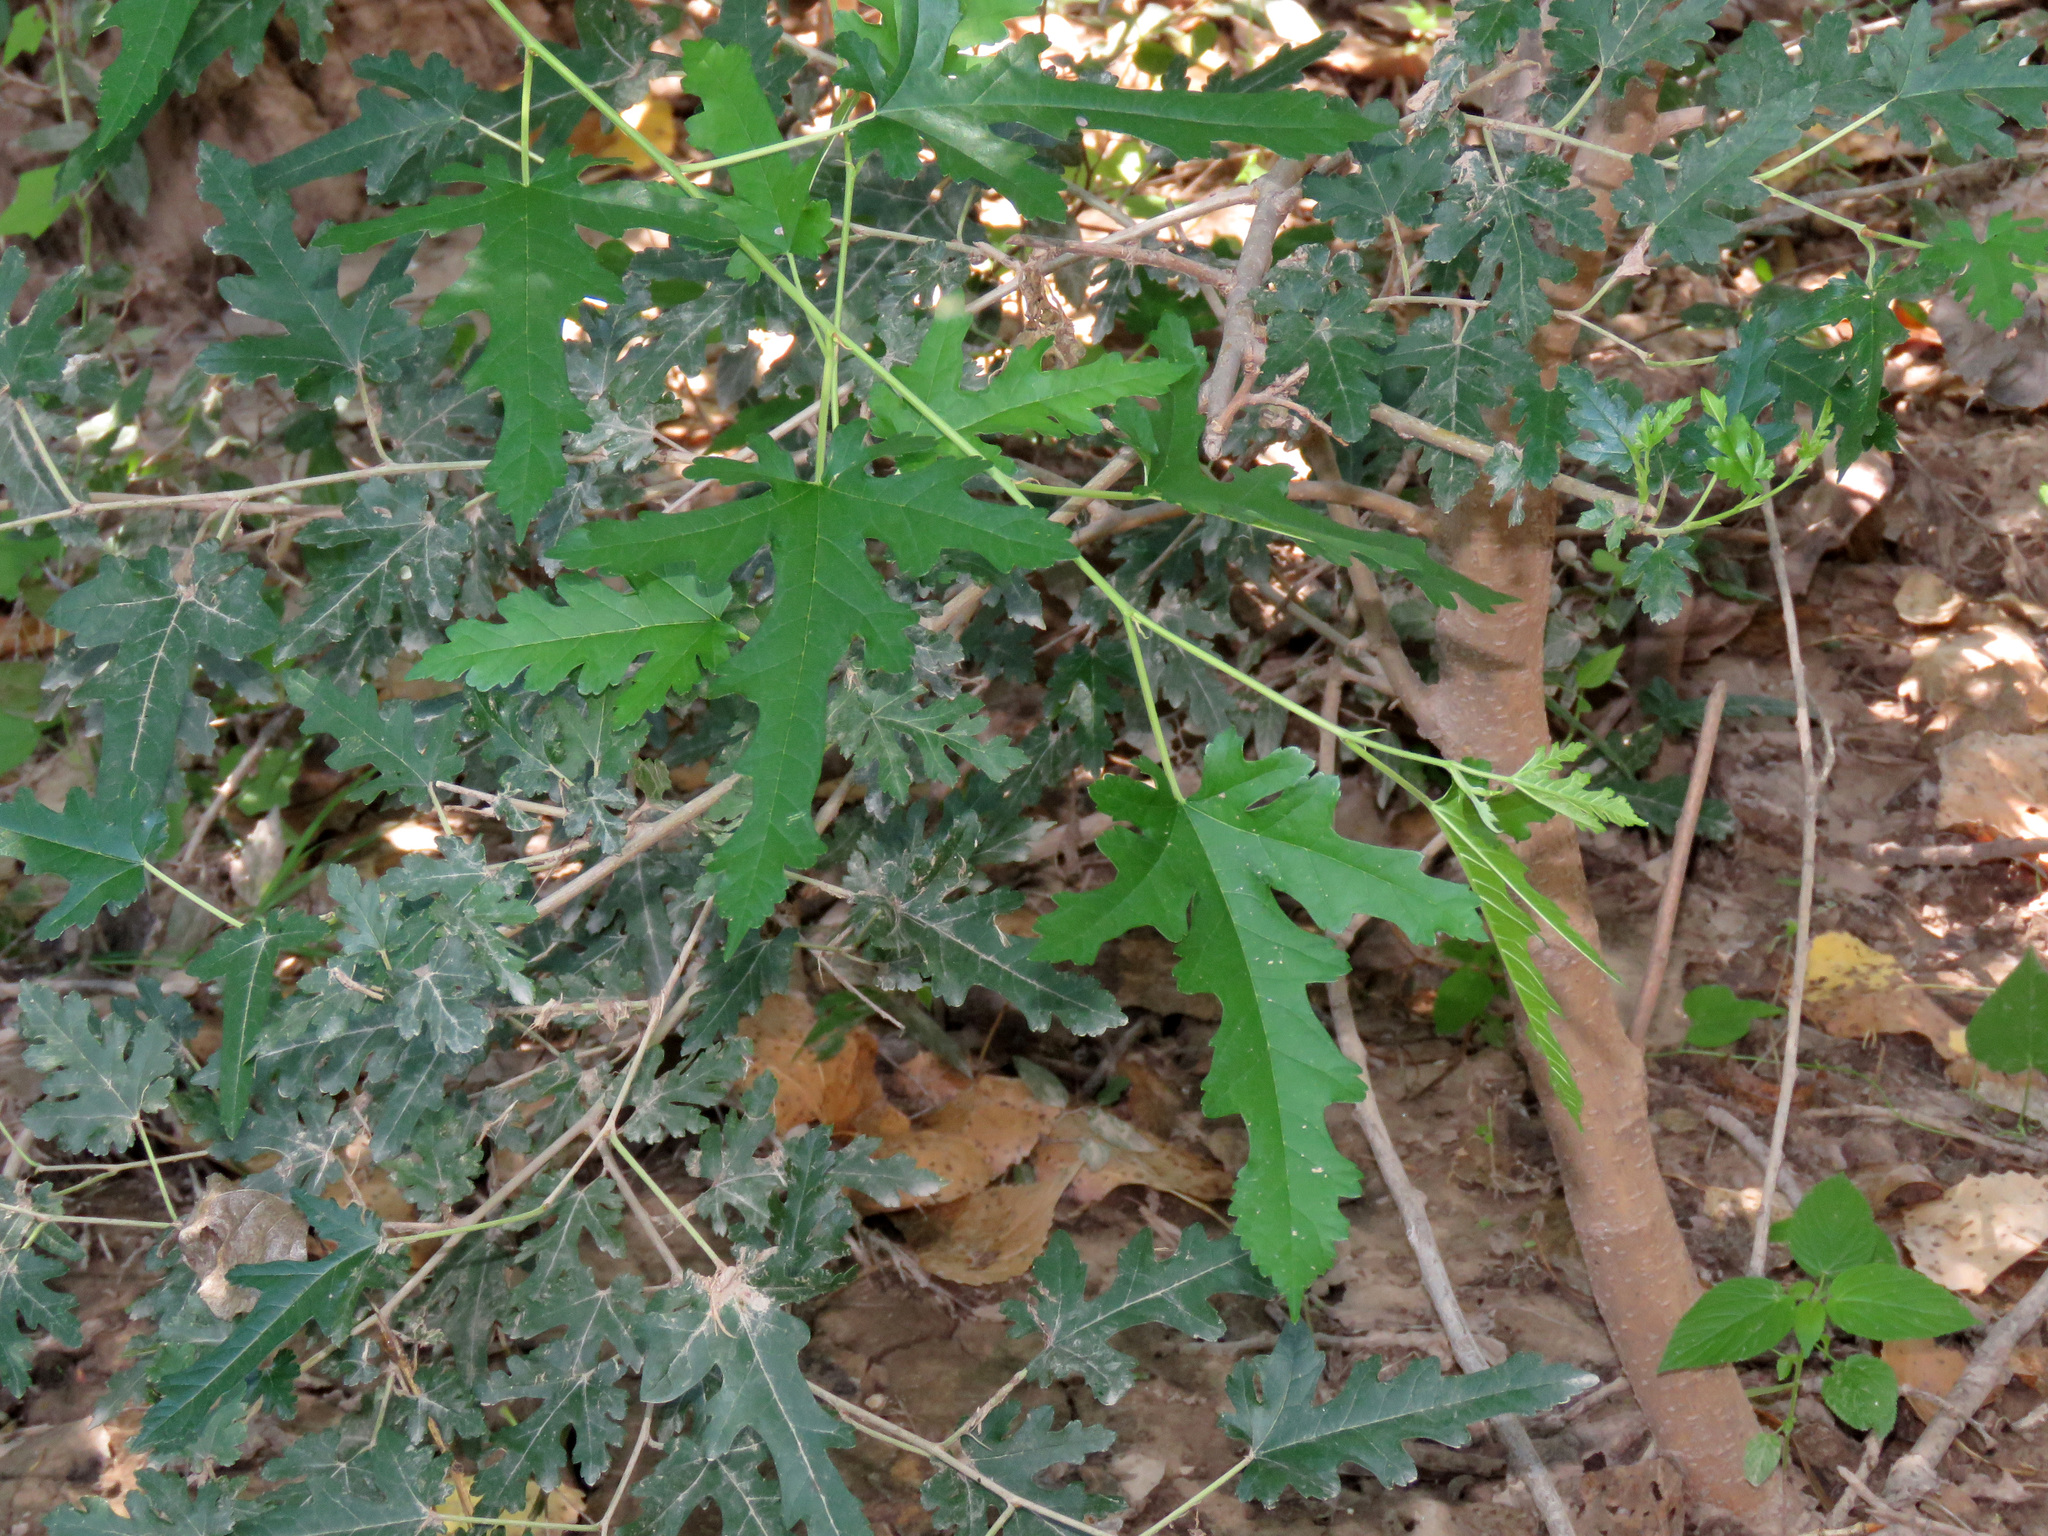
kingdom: Plantae
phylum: Tracheophyta
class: Magnoliopsida
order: Rosales
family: Moraceae
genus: Morus
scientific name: Morus alba
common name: White mulberry
